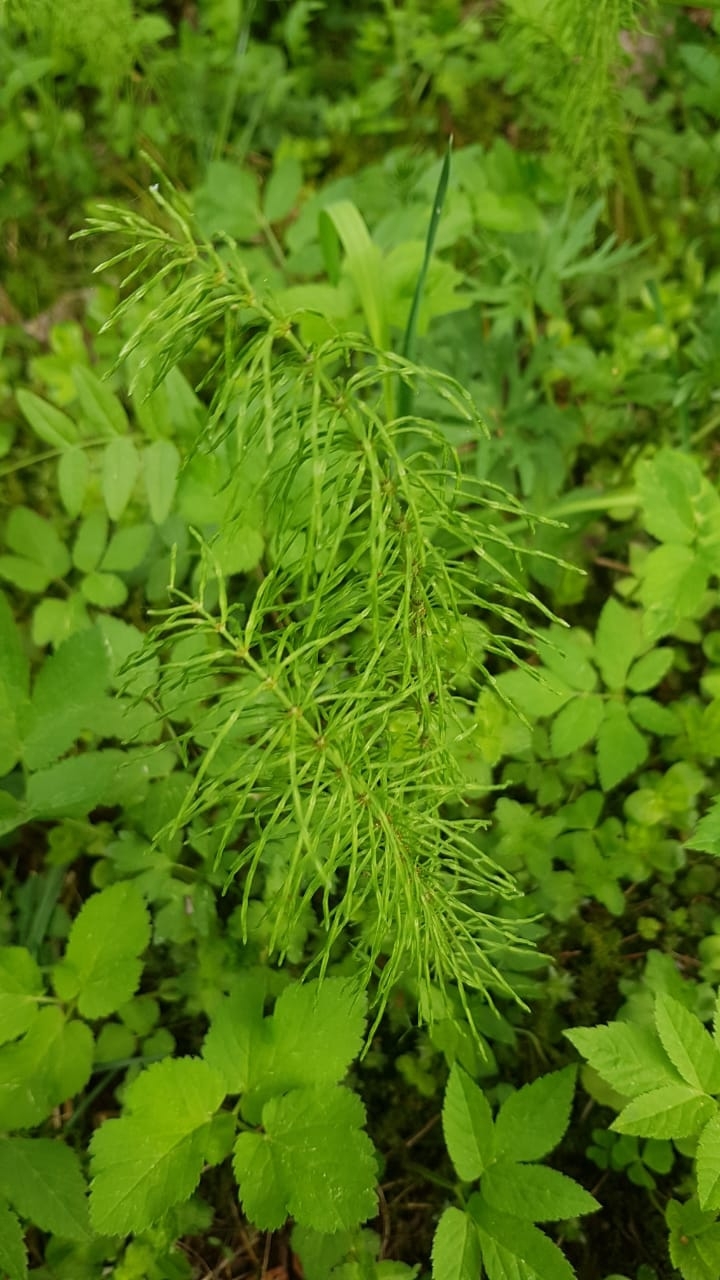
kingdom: Plantae
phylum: Tracheophyta
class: Polypodiopsida
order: Equisetales
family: Equisetaceae
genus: Equisetum
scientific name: Equisetum pratense
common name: Meadow horsetail
